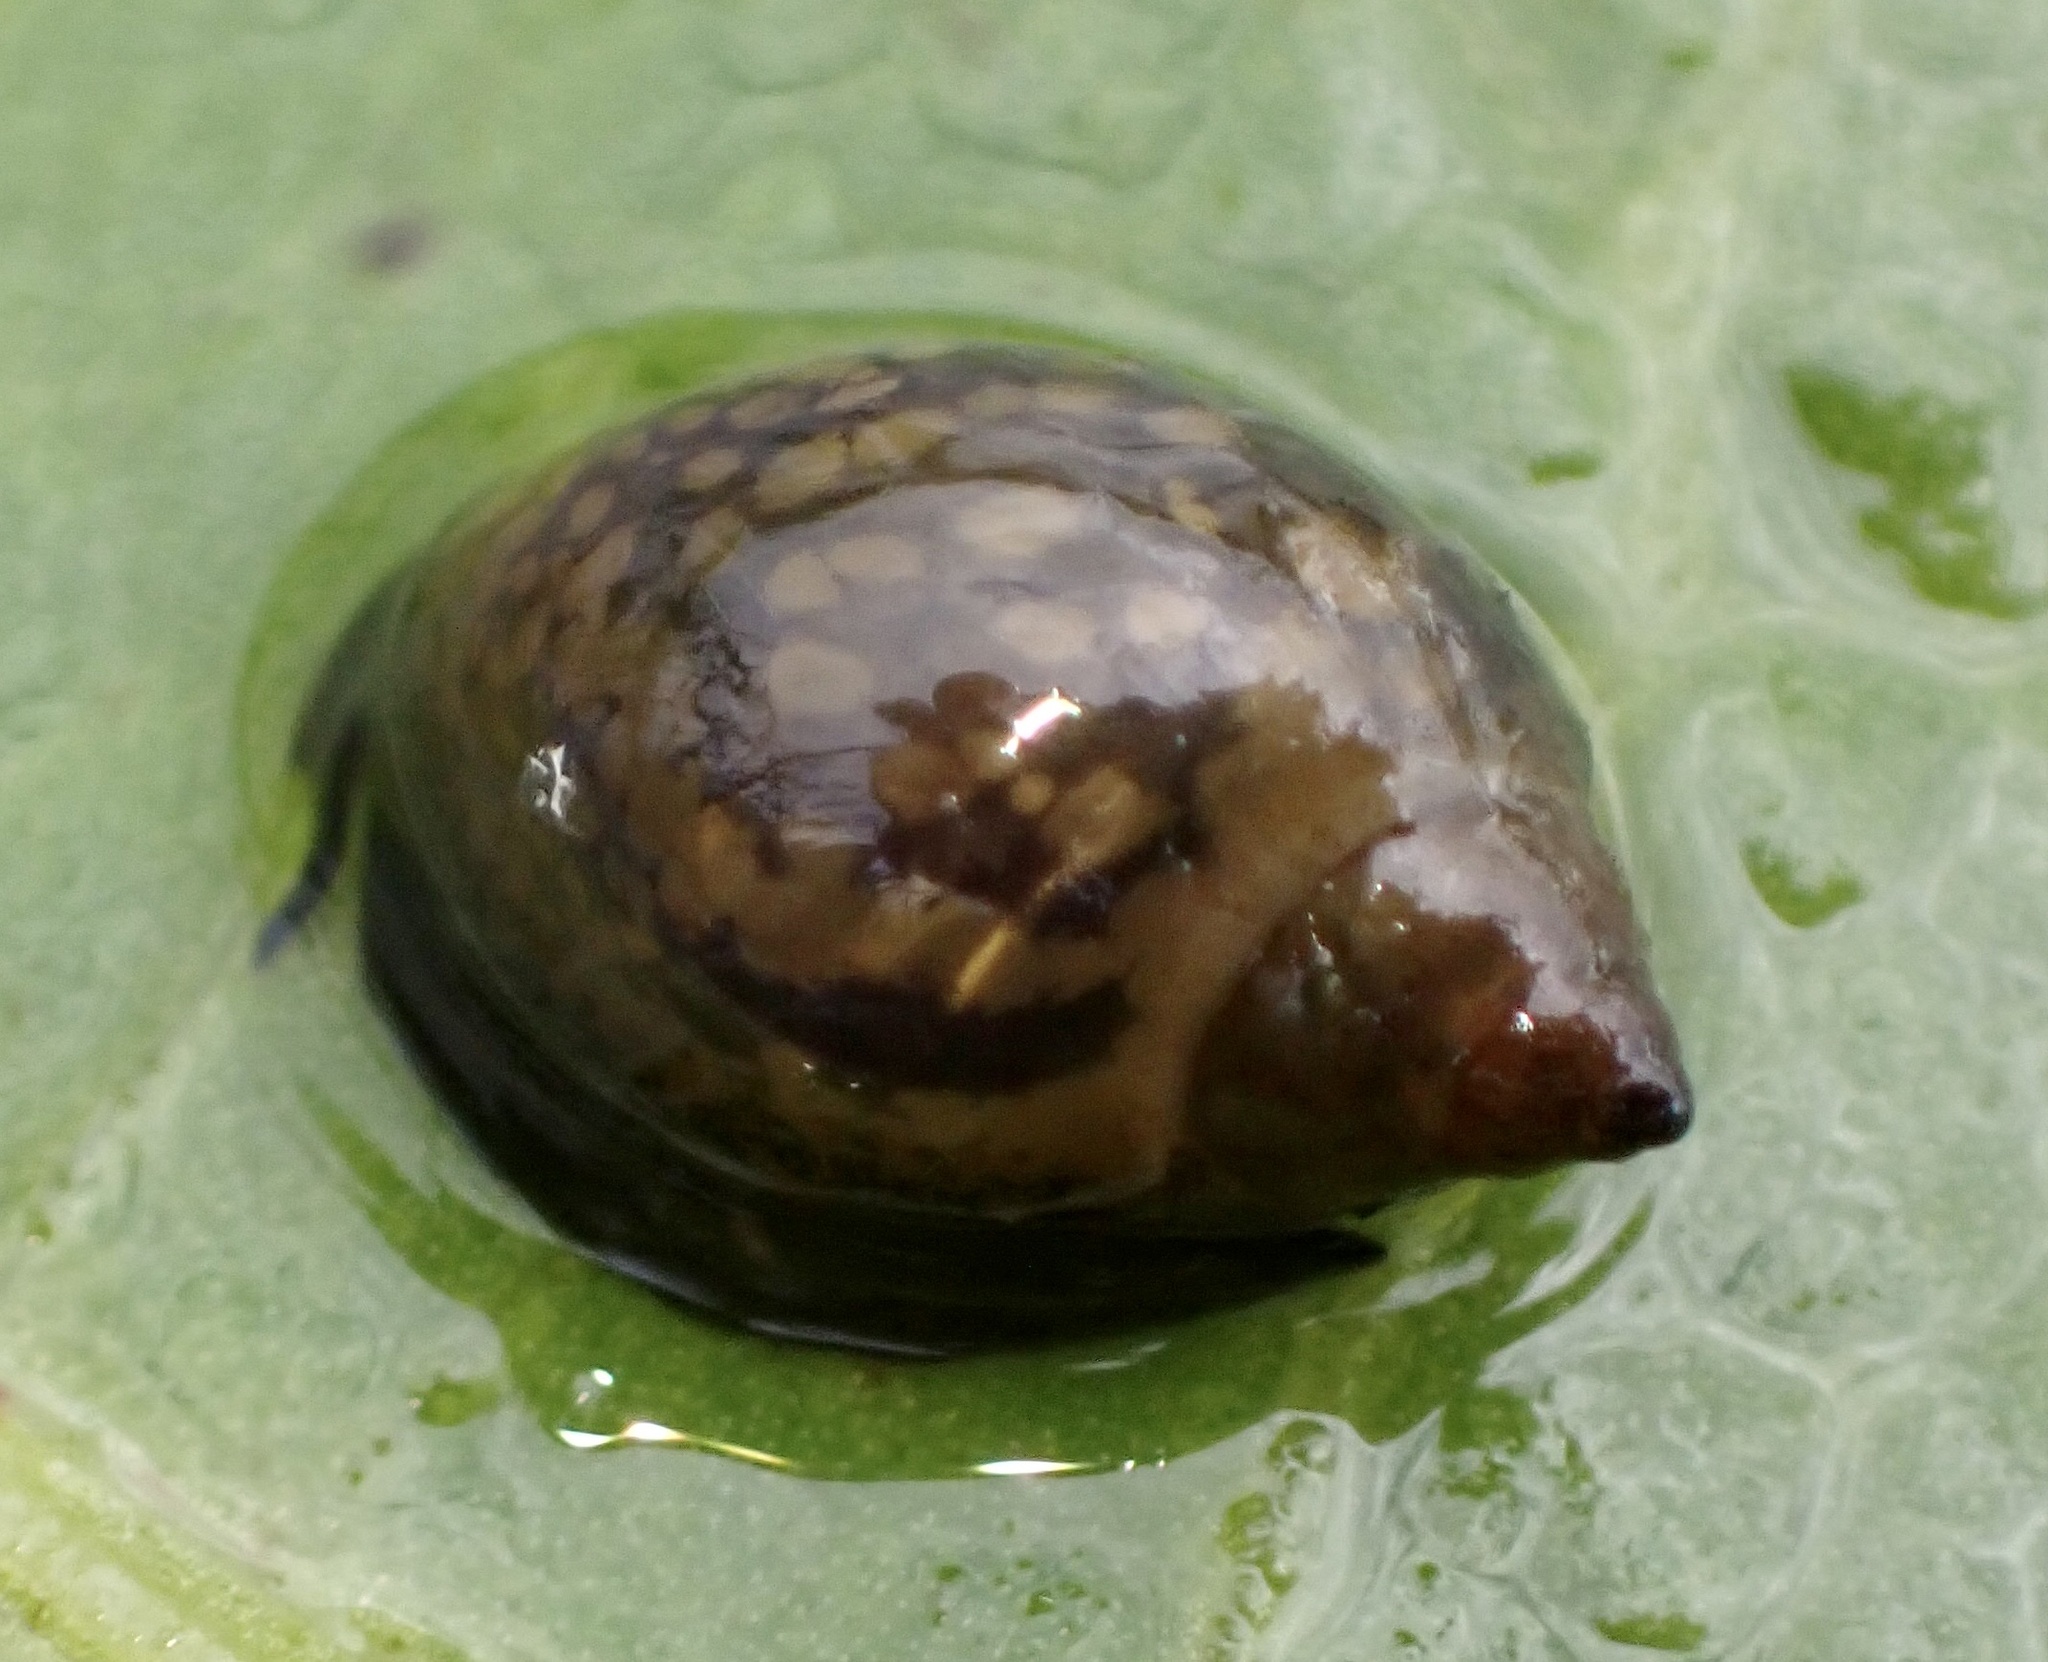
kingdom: Animalia
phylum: Mollusca
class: Gastropoda
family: Physidae
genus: Physella
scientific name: Physella acuta
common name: European physa
